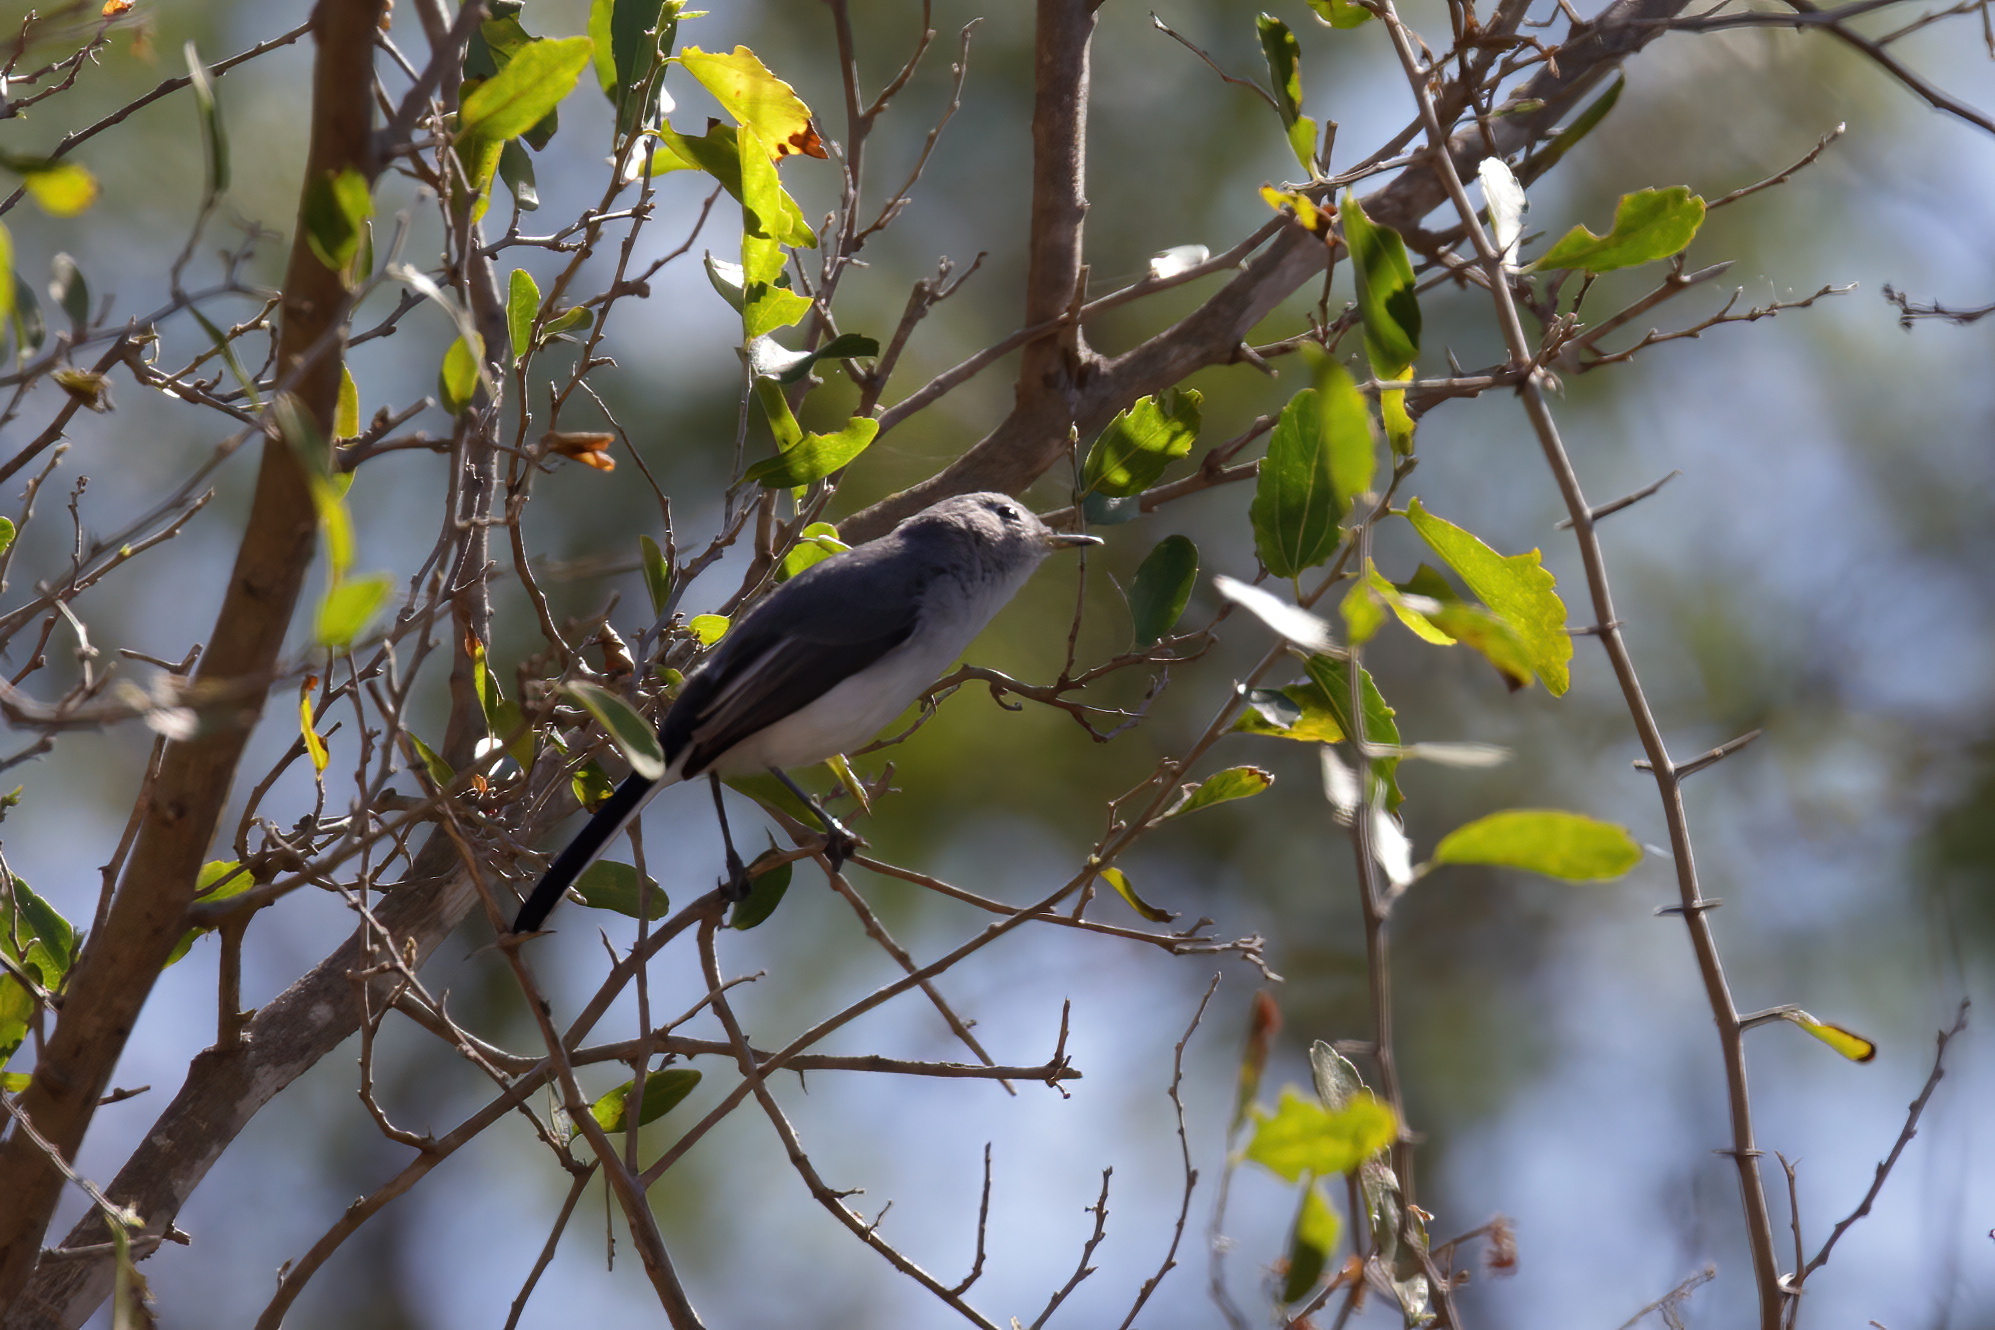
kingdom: Animalia
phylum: Chordata
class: Aves
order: Passeriformes
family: Polioptilidae
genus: Polioptila
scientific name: Polioptila caerulea
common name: Blue-gray gnatcatcher
